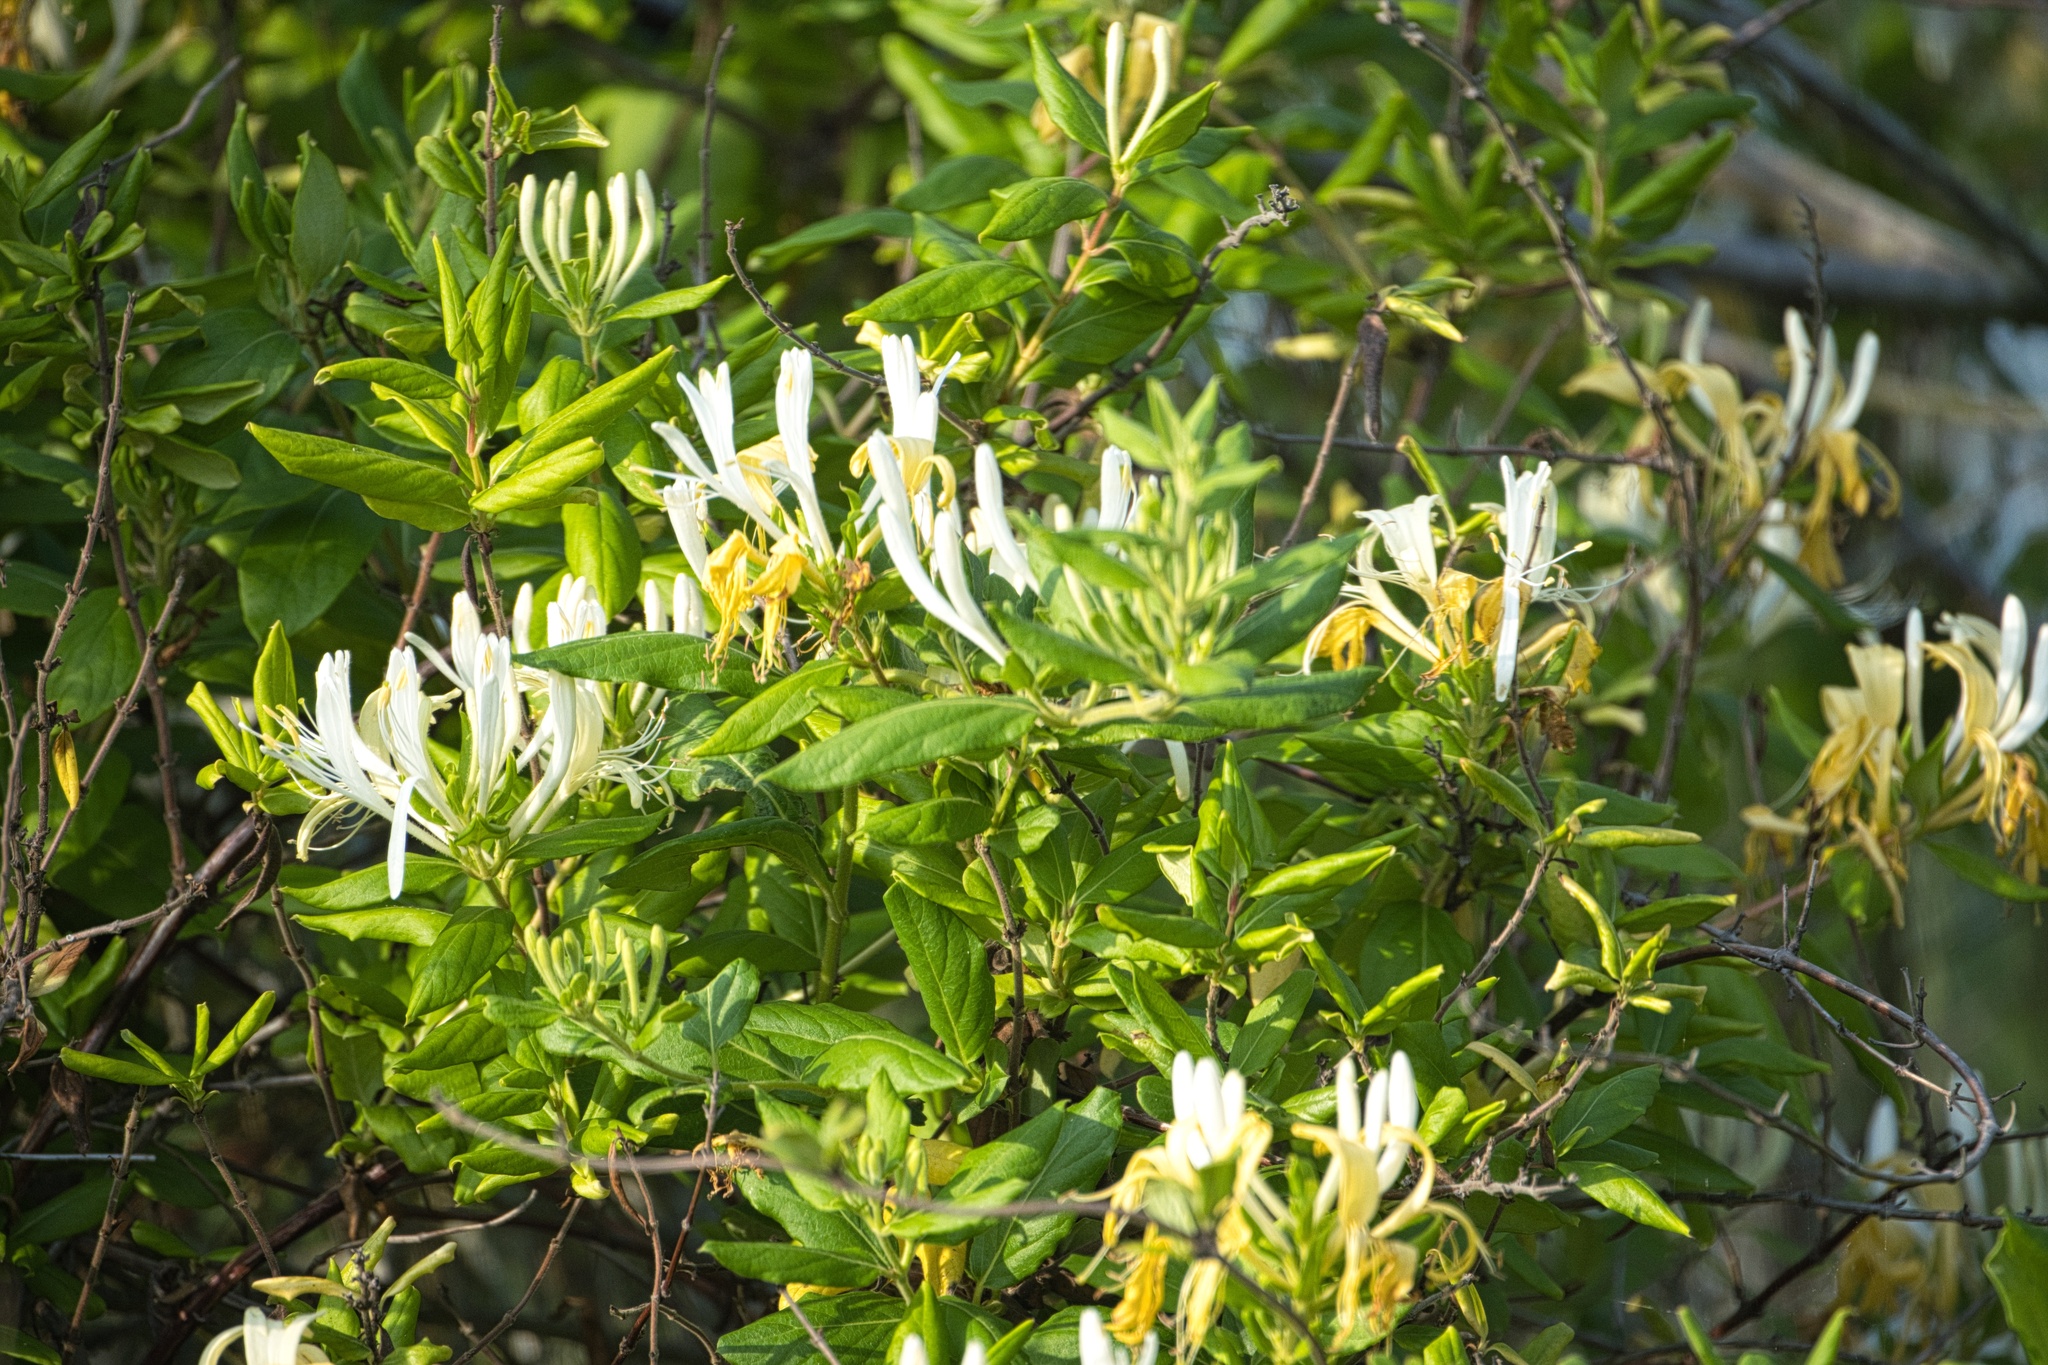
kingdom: Plantae
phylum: Tracheophyta
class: Magnoliopsida
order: Dipsacales
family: Caprifoliaceae
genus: Lonicera
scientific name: Lonicera japonica
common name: Japanese honeysuckle
